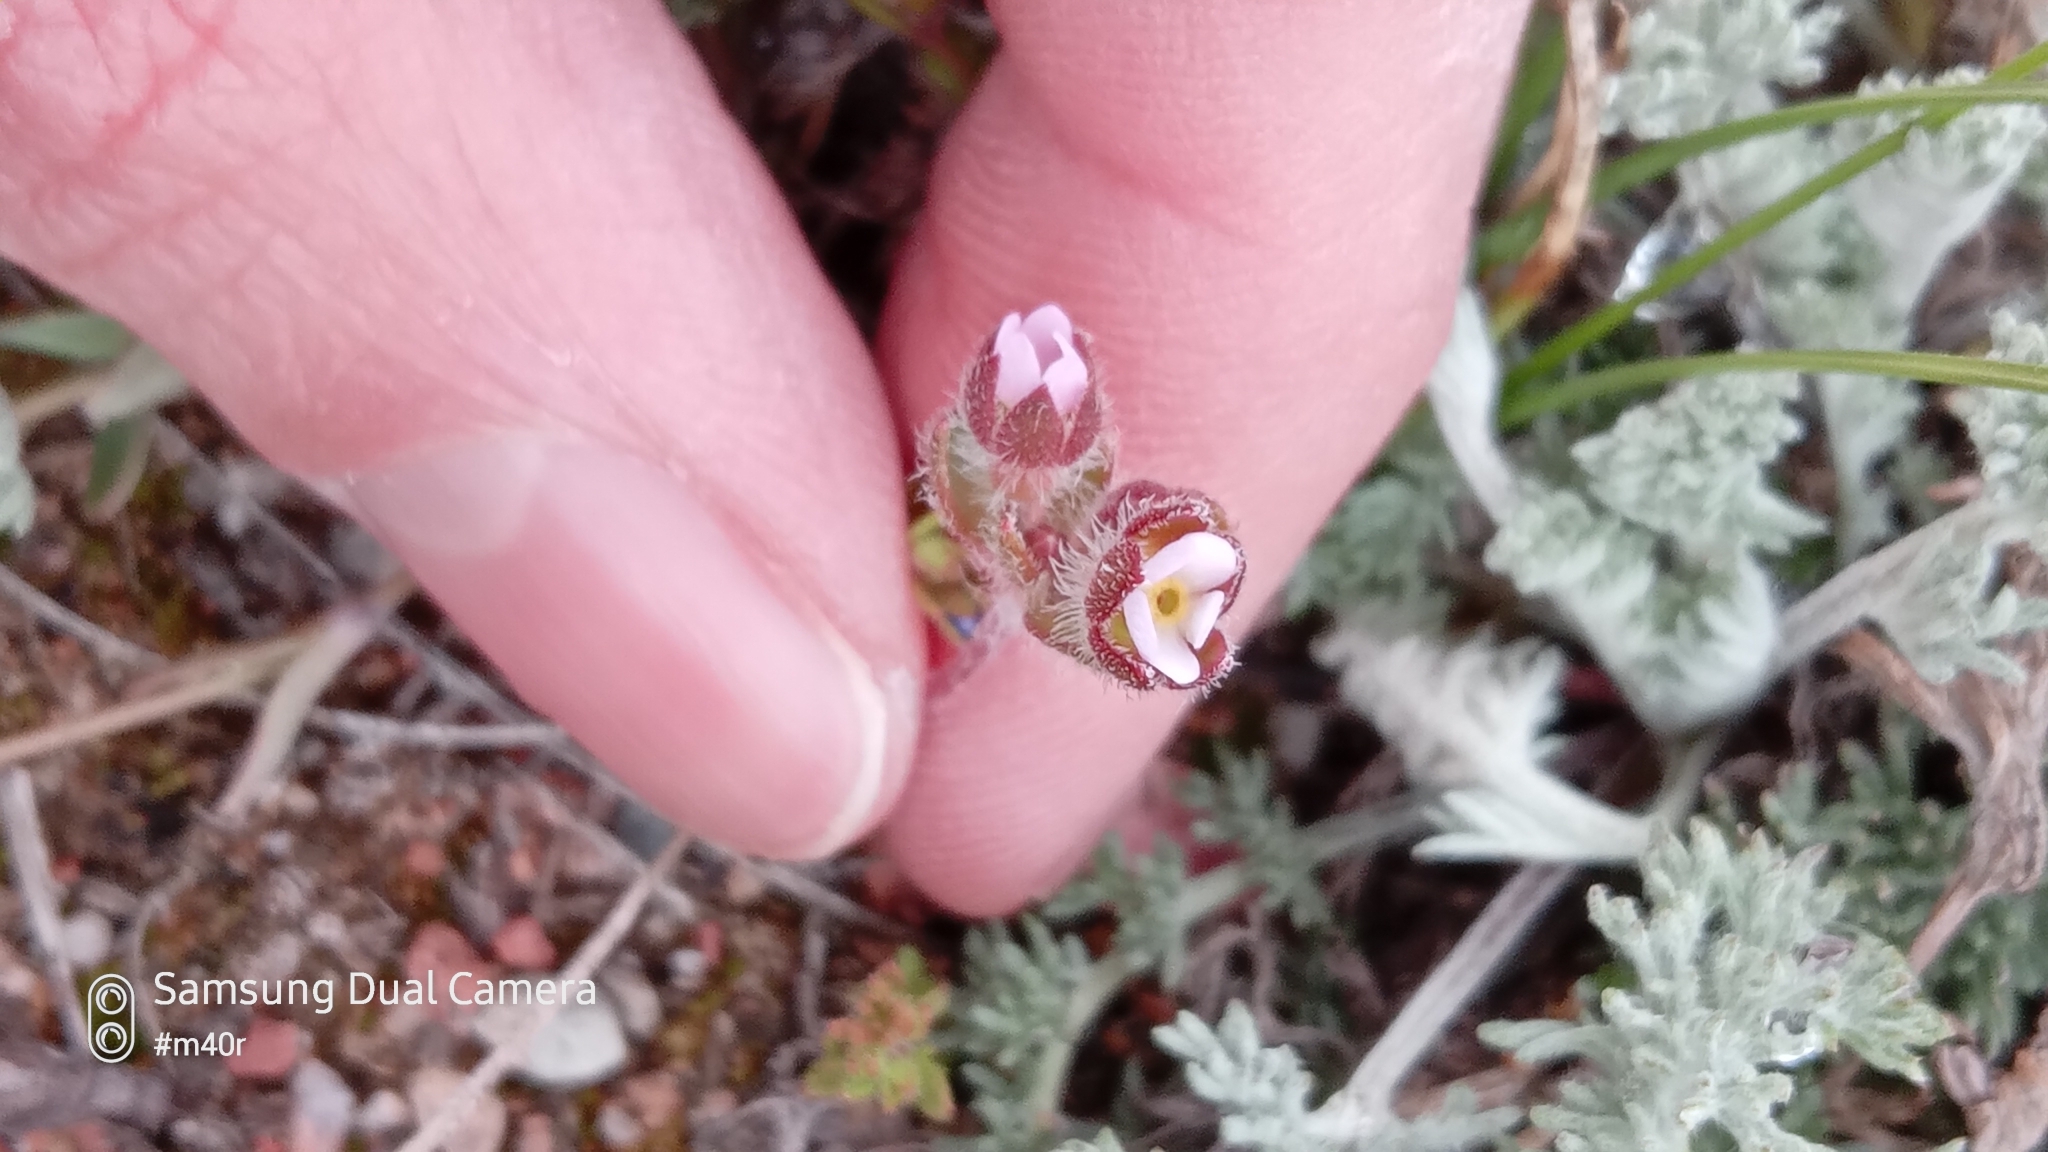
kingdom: Plantae
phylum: Tracheophyta
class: Magnoliopsida
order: Ericales
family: Primulaceae
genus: Androsace
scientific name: Androsace maxima
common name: Annual androsace
